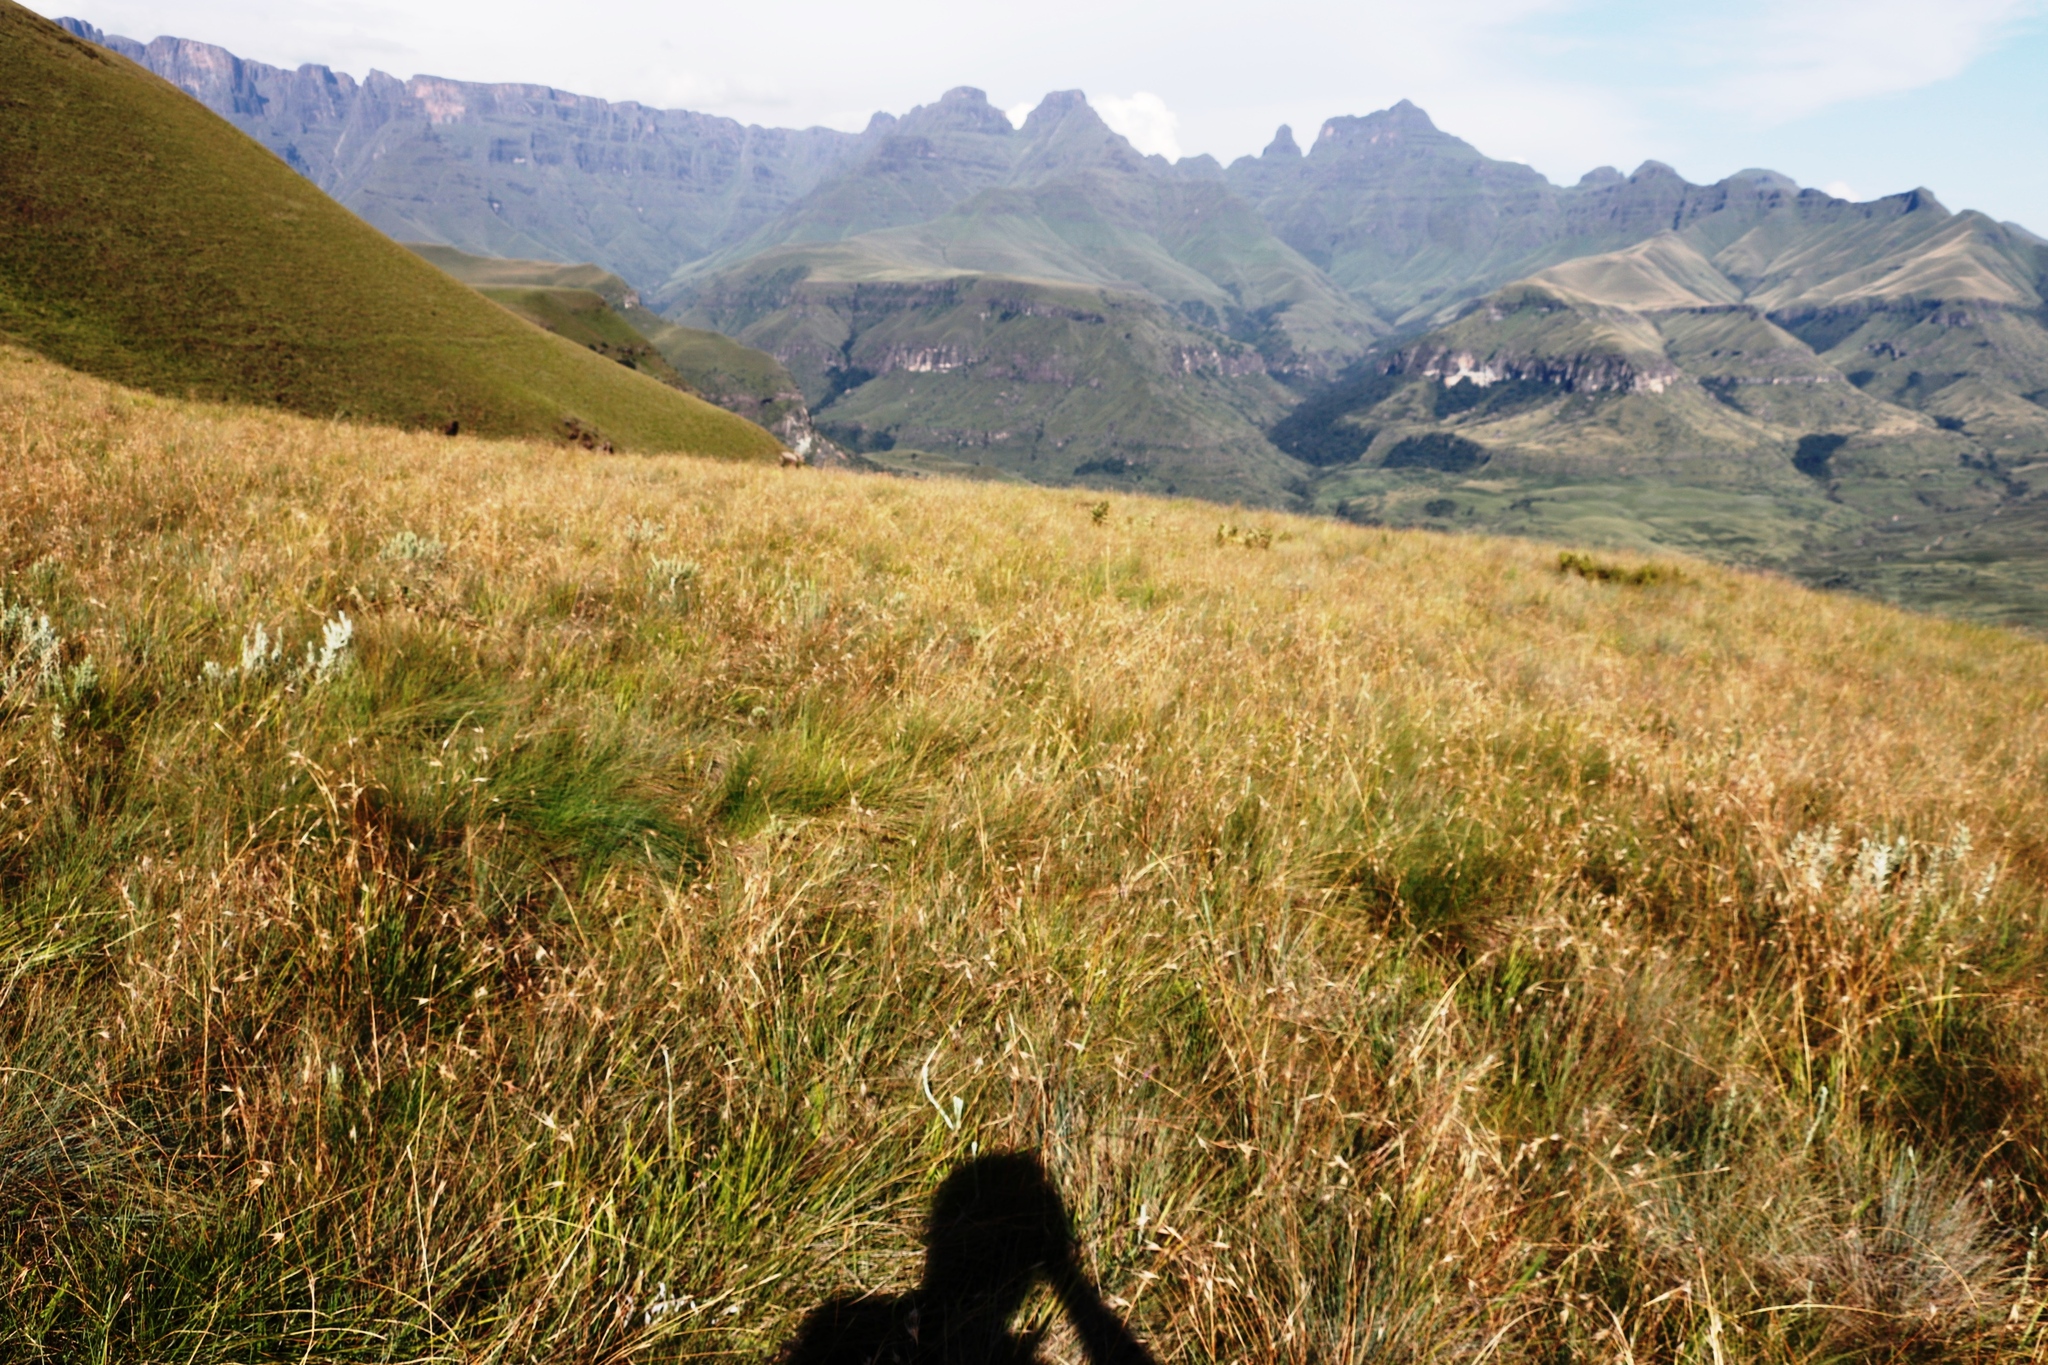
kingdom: Plantae
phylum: Tracheophyta
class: Liliopsida
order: Poales
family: Poaceae
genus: Themeda
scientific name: Themeda triandra
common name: Kangaroo grass
